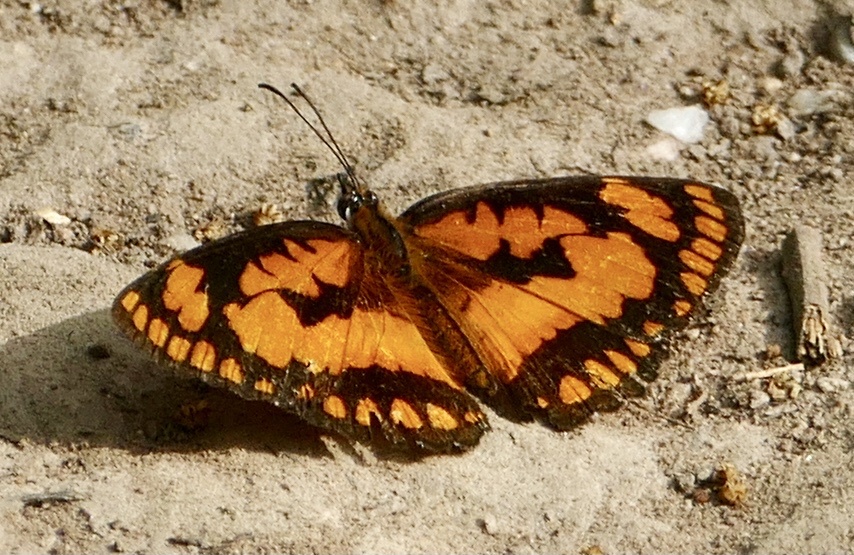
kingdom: Animalia
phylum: Arthropoda
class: Insecta
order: Lepidoptera
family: Nymphalidae
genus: Byblia
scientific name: Byblia anvatara
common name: African joker
